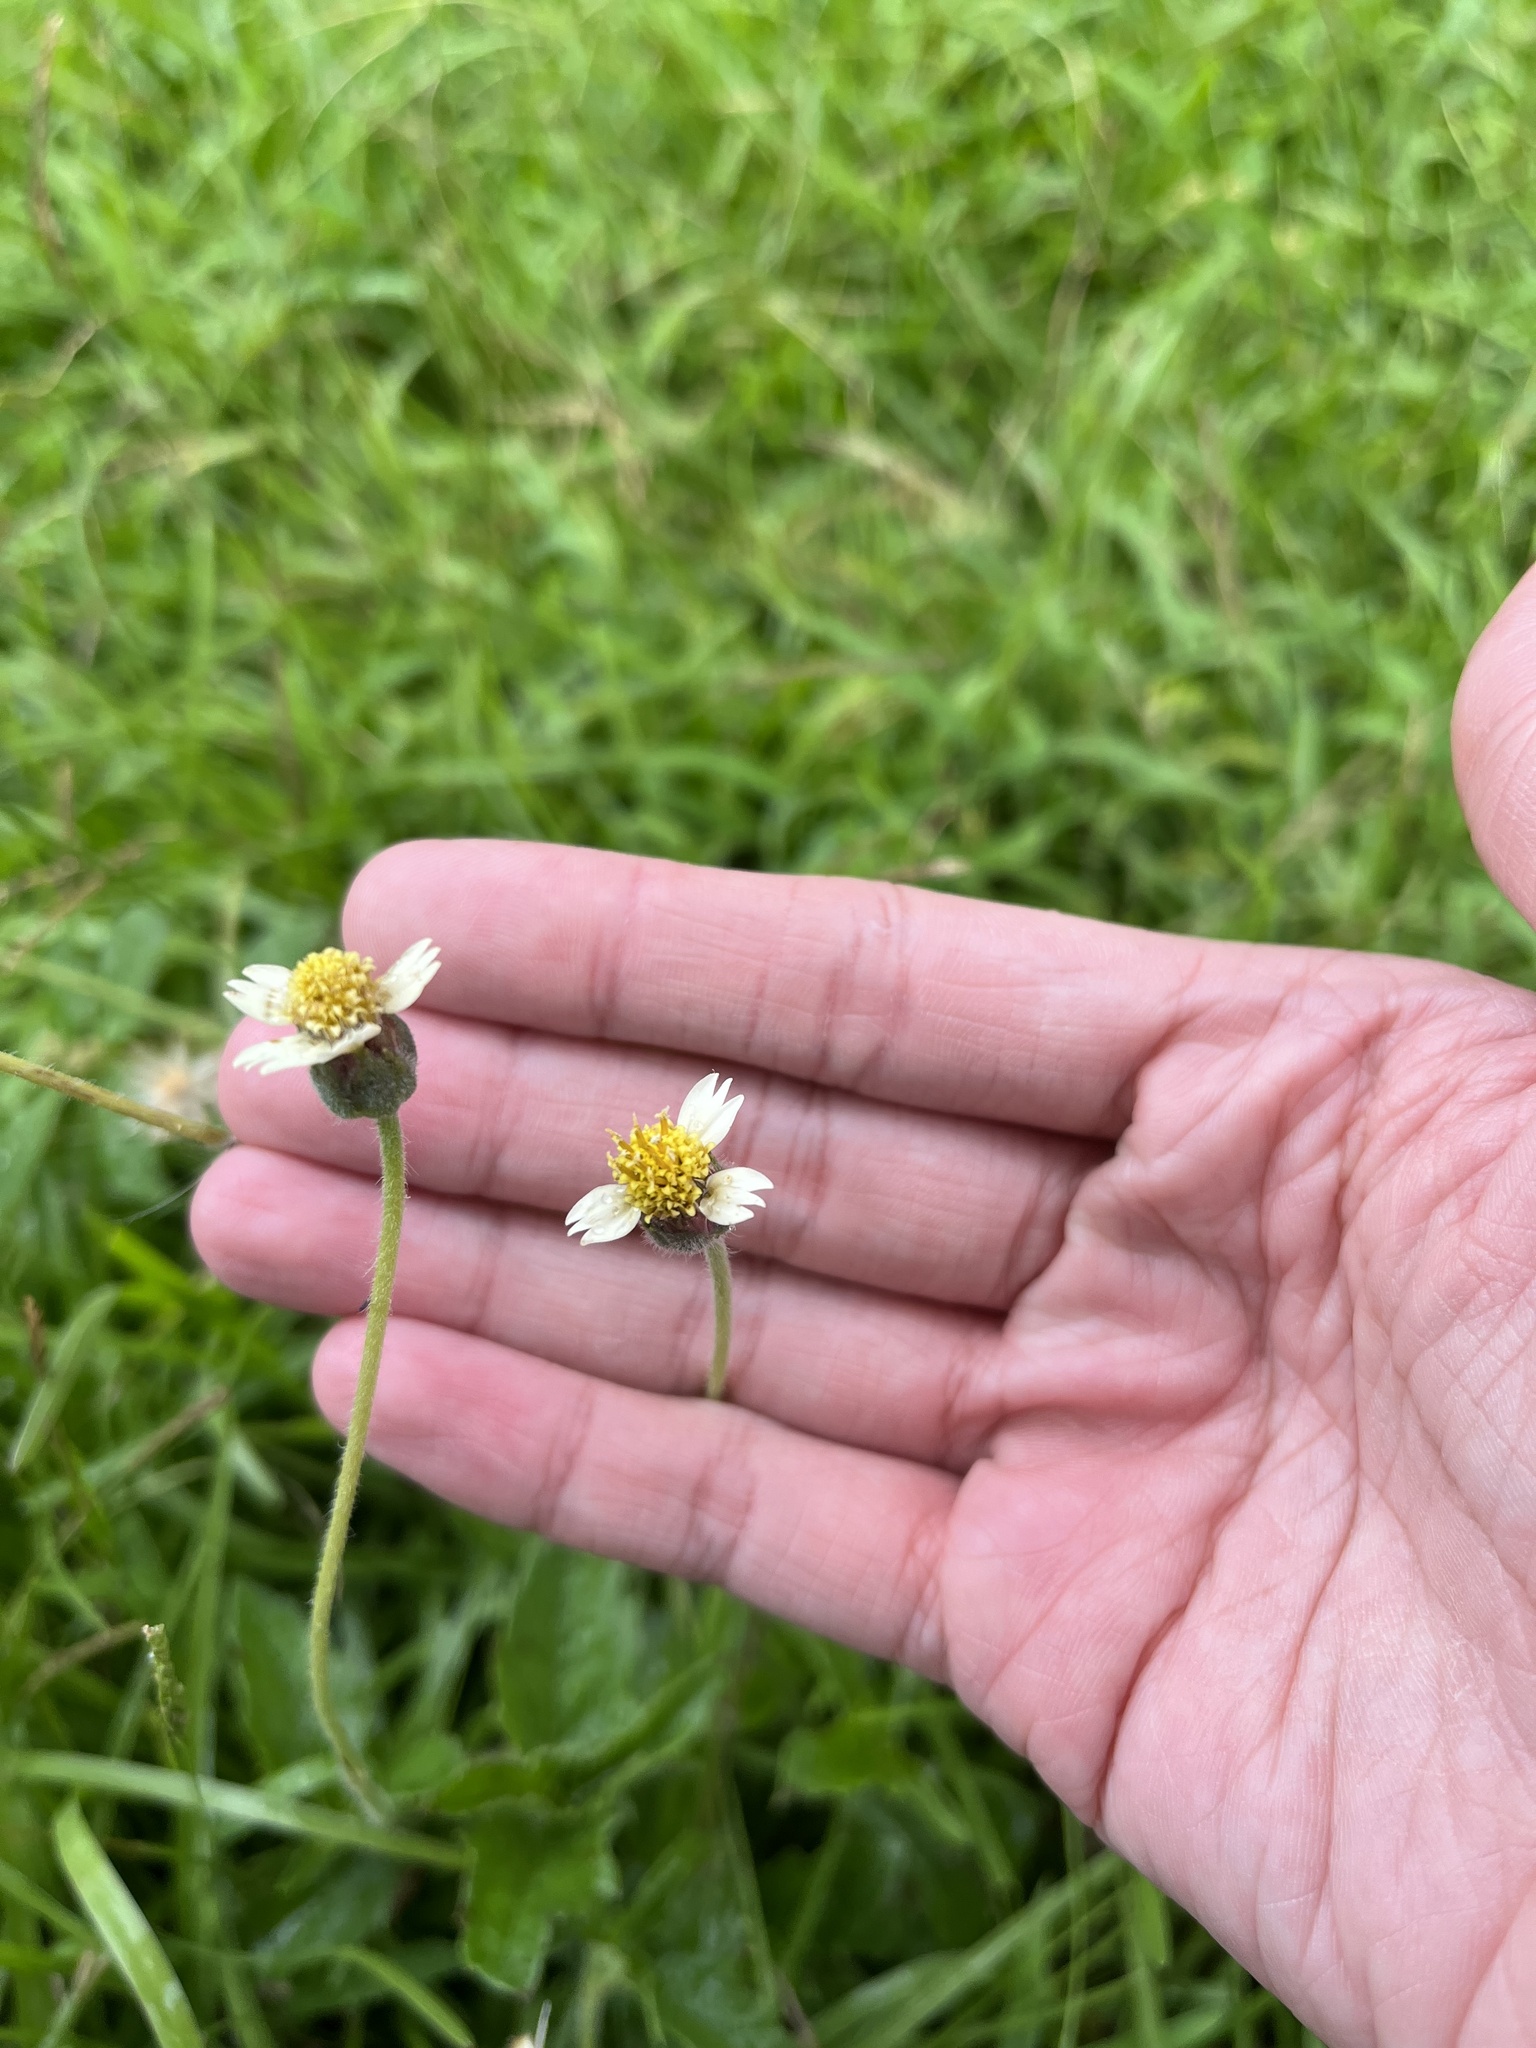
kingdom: Plantae
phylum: Tracheophyta
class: Magnoliopsida
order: Asterales
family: Asteraceae
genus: Tridax
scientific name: Tridax procumbens
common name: Coatbuttons
